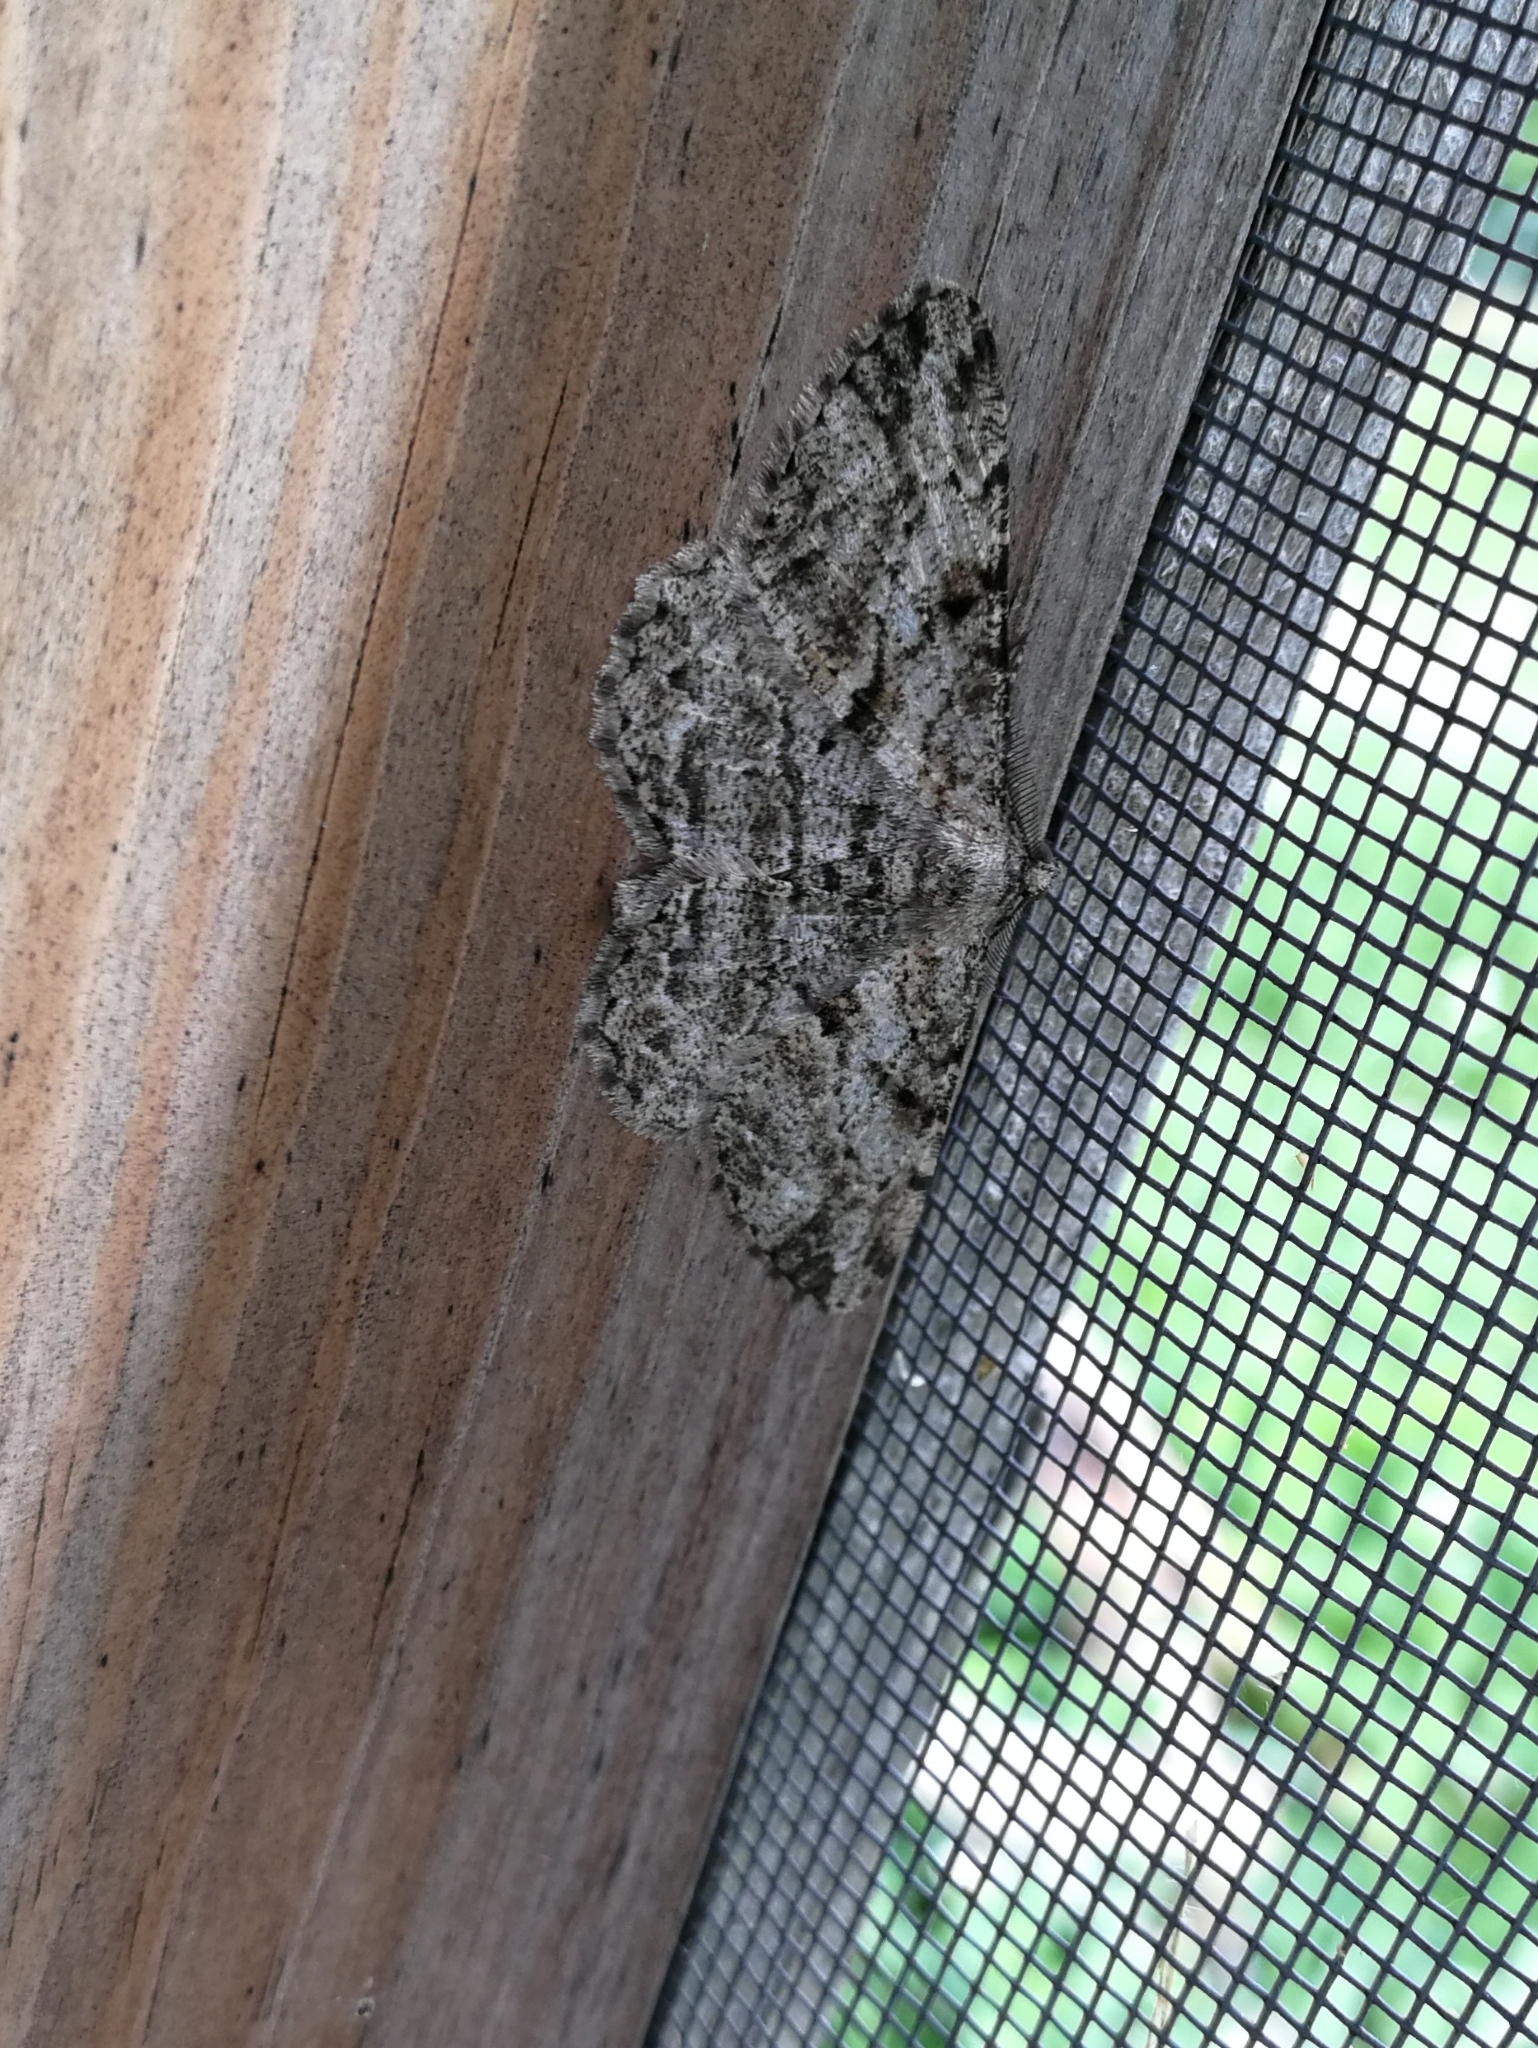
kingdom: Animalia
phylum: Arthropoda
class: Insecta
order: Lepidoptera
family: Geometridae
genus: Peribatodes
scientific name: Peribatodes rhomboidaria
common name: Willow beauty
